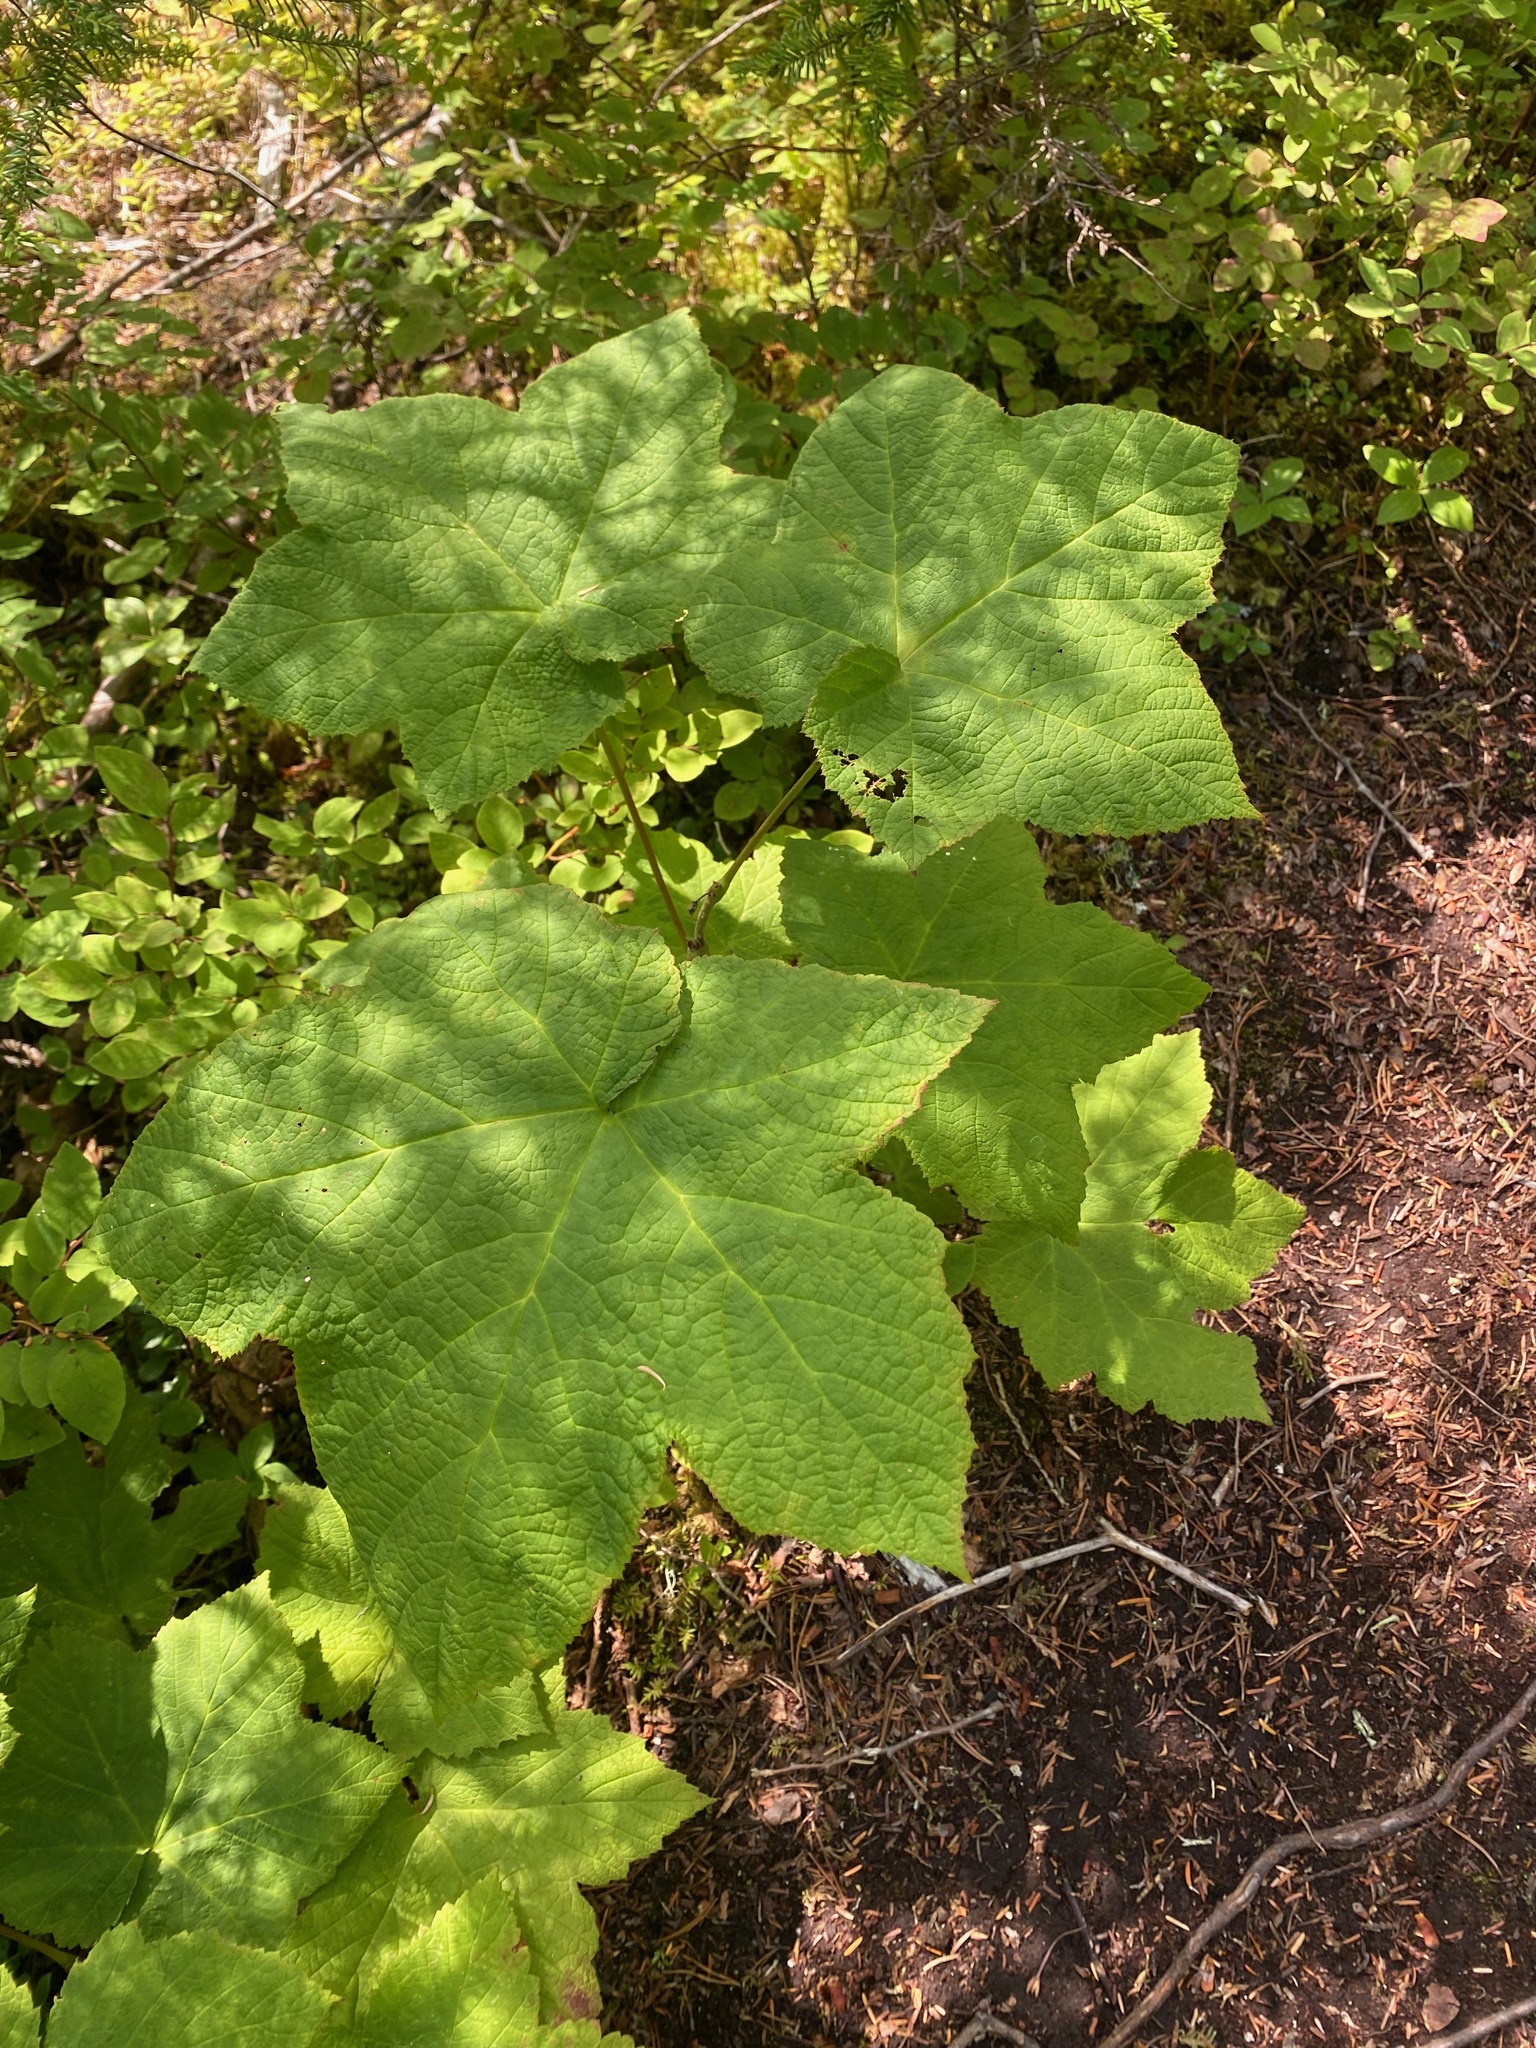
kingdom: Plantae
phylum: Tracheophyta
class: Magnoliopsida
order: Rosales
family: Rosaceae
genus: Rubus
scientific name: Rubus parviflorus
